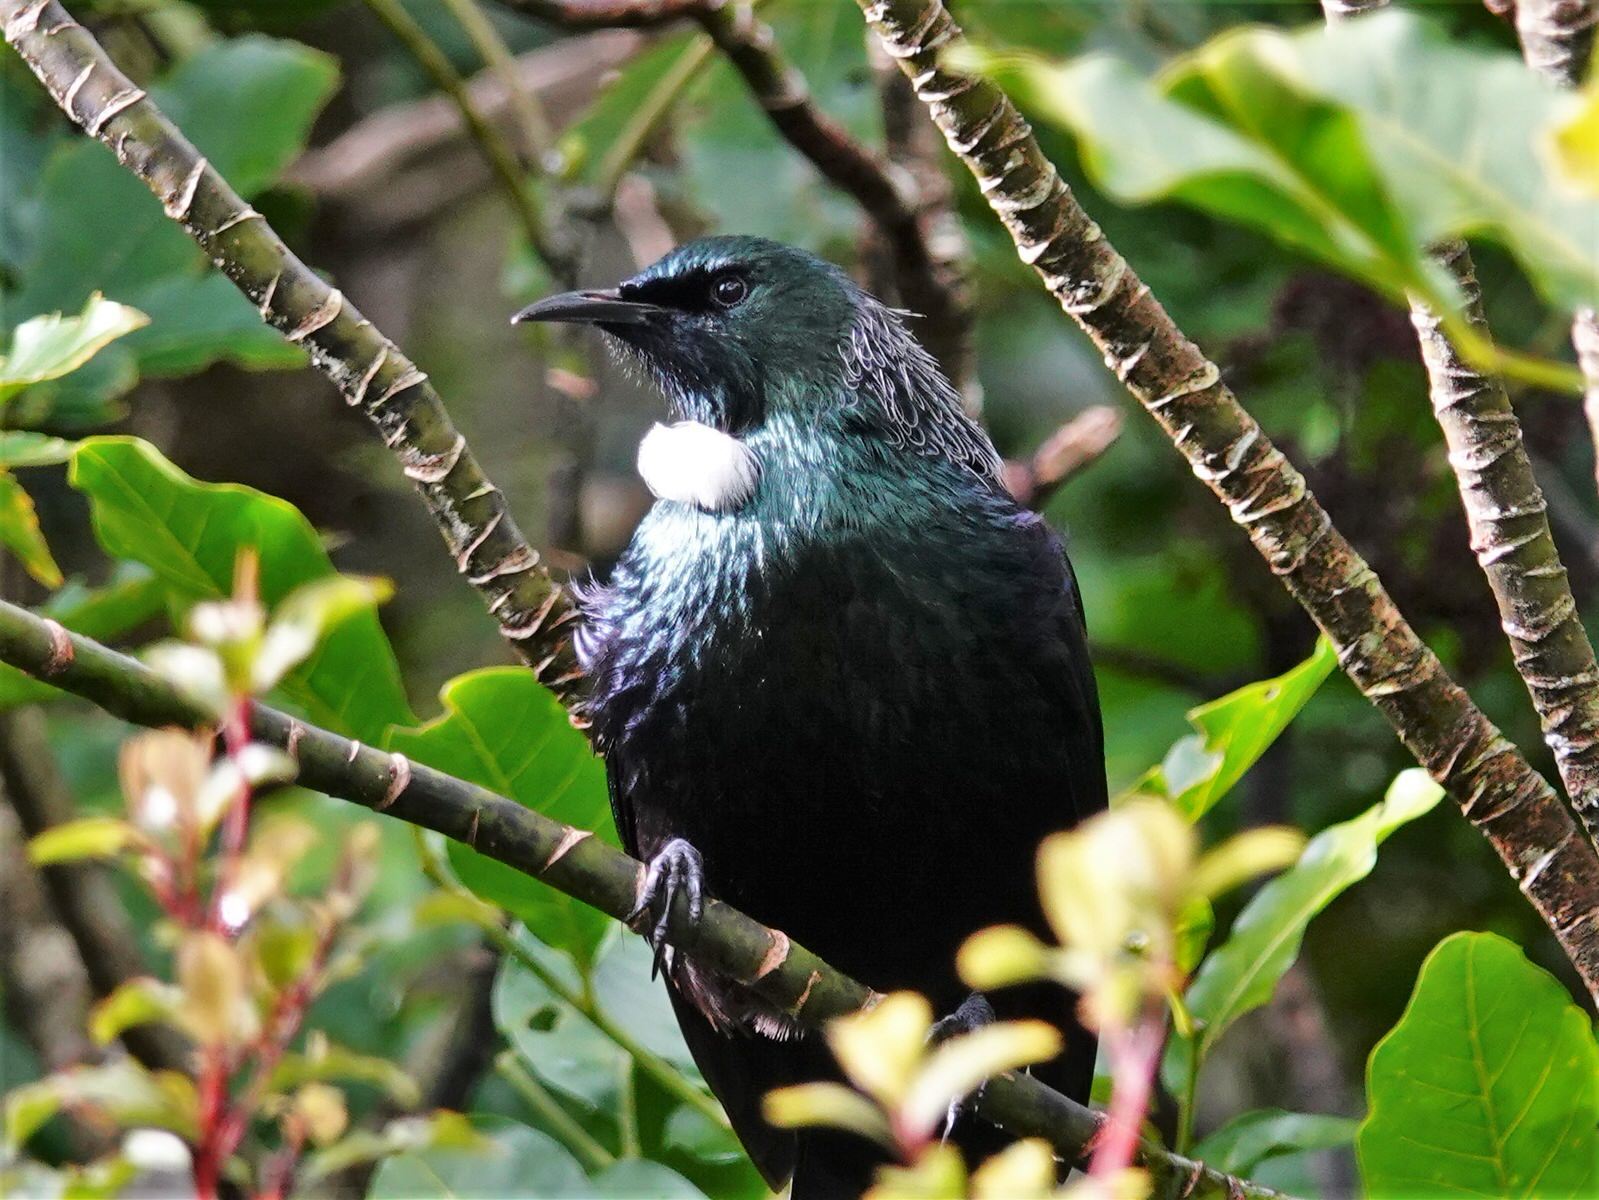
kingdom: Animalia
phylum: Chordata
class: Aves
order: Passeriformes
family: Meliphagidae
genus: Prosthemadera
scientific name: Prosthemadera novaeseelandiae
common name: Tui
